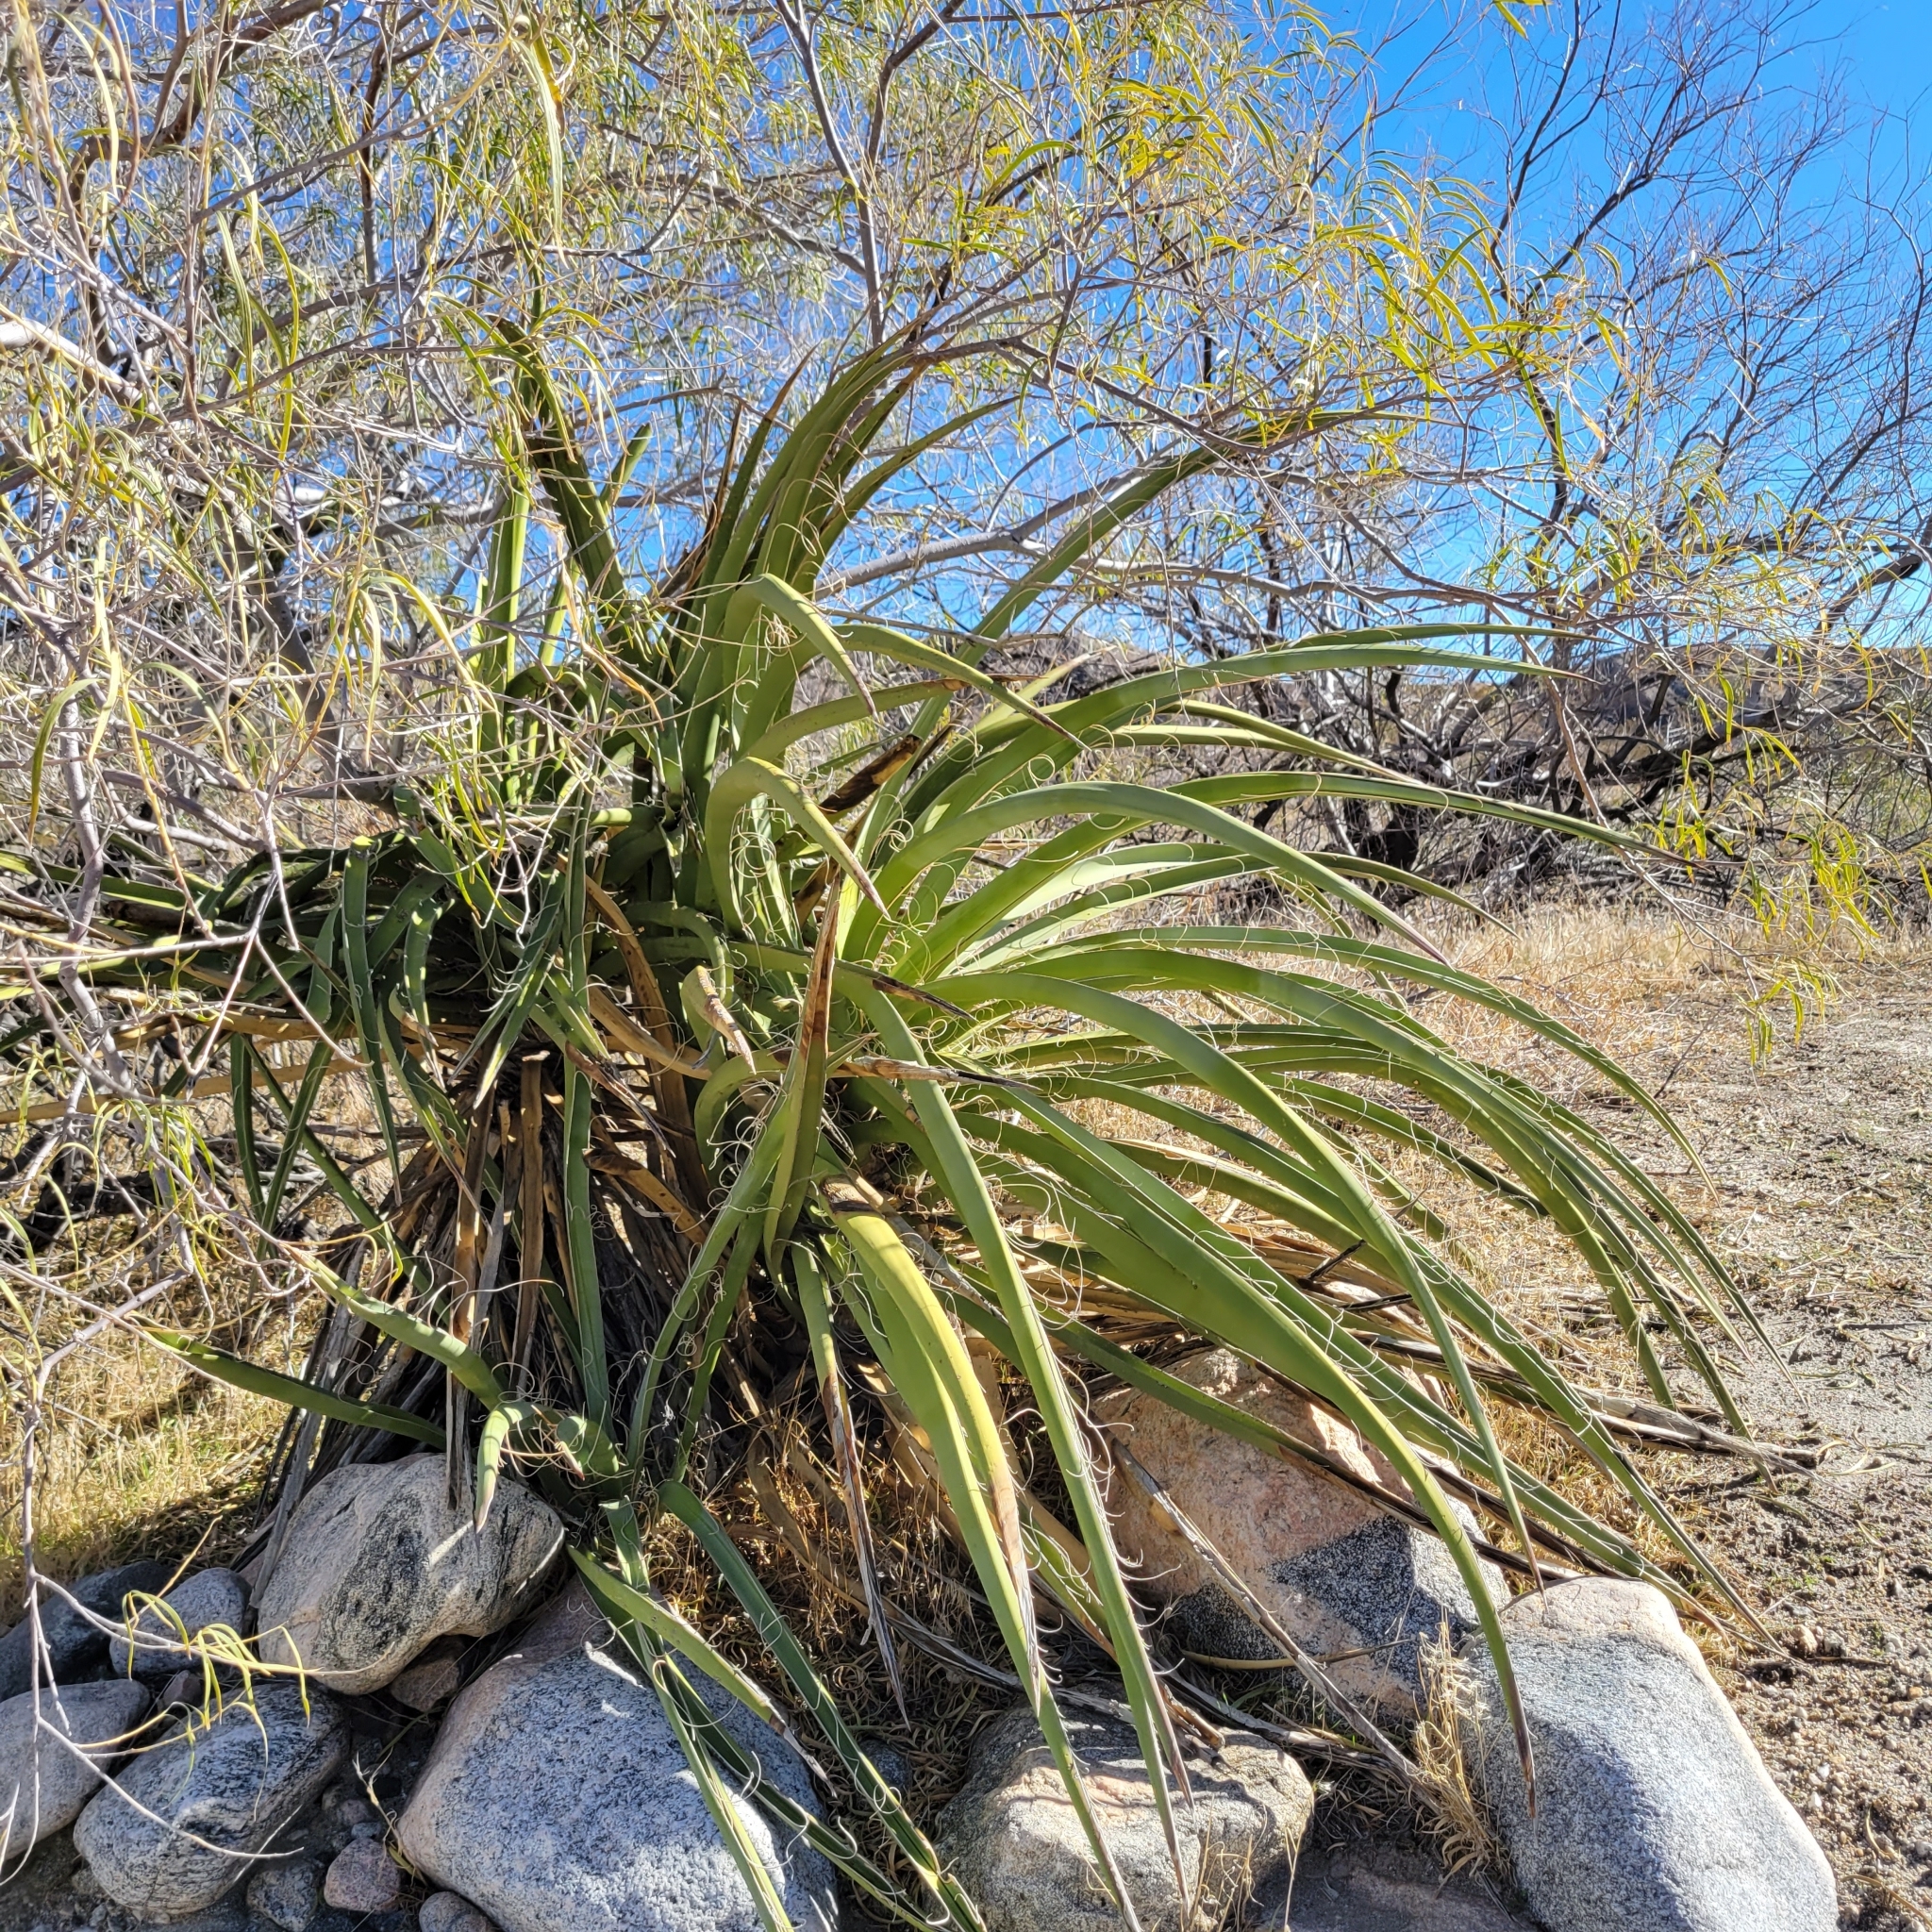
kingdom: Plantae
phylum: Tracheophyta
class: Liliopsida
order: Asparagales
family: Asparagaceae
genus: Yucca
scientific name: Yucca schidigera
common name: Mojave yucca
